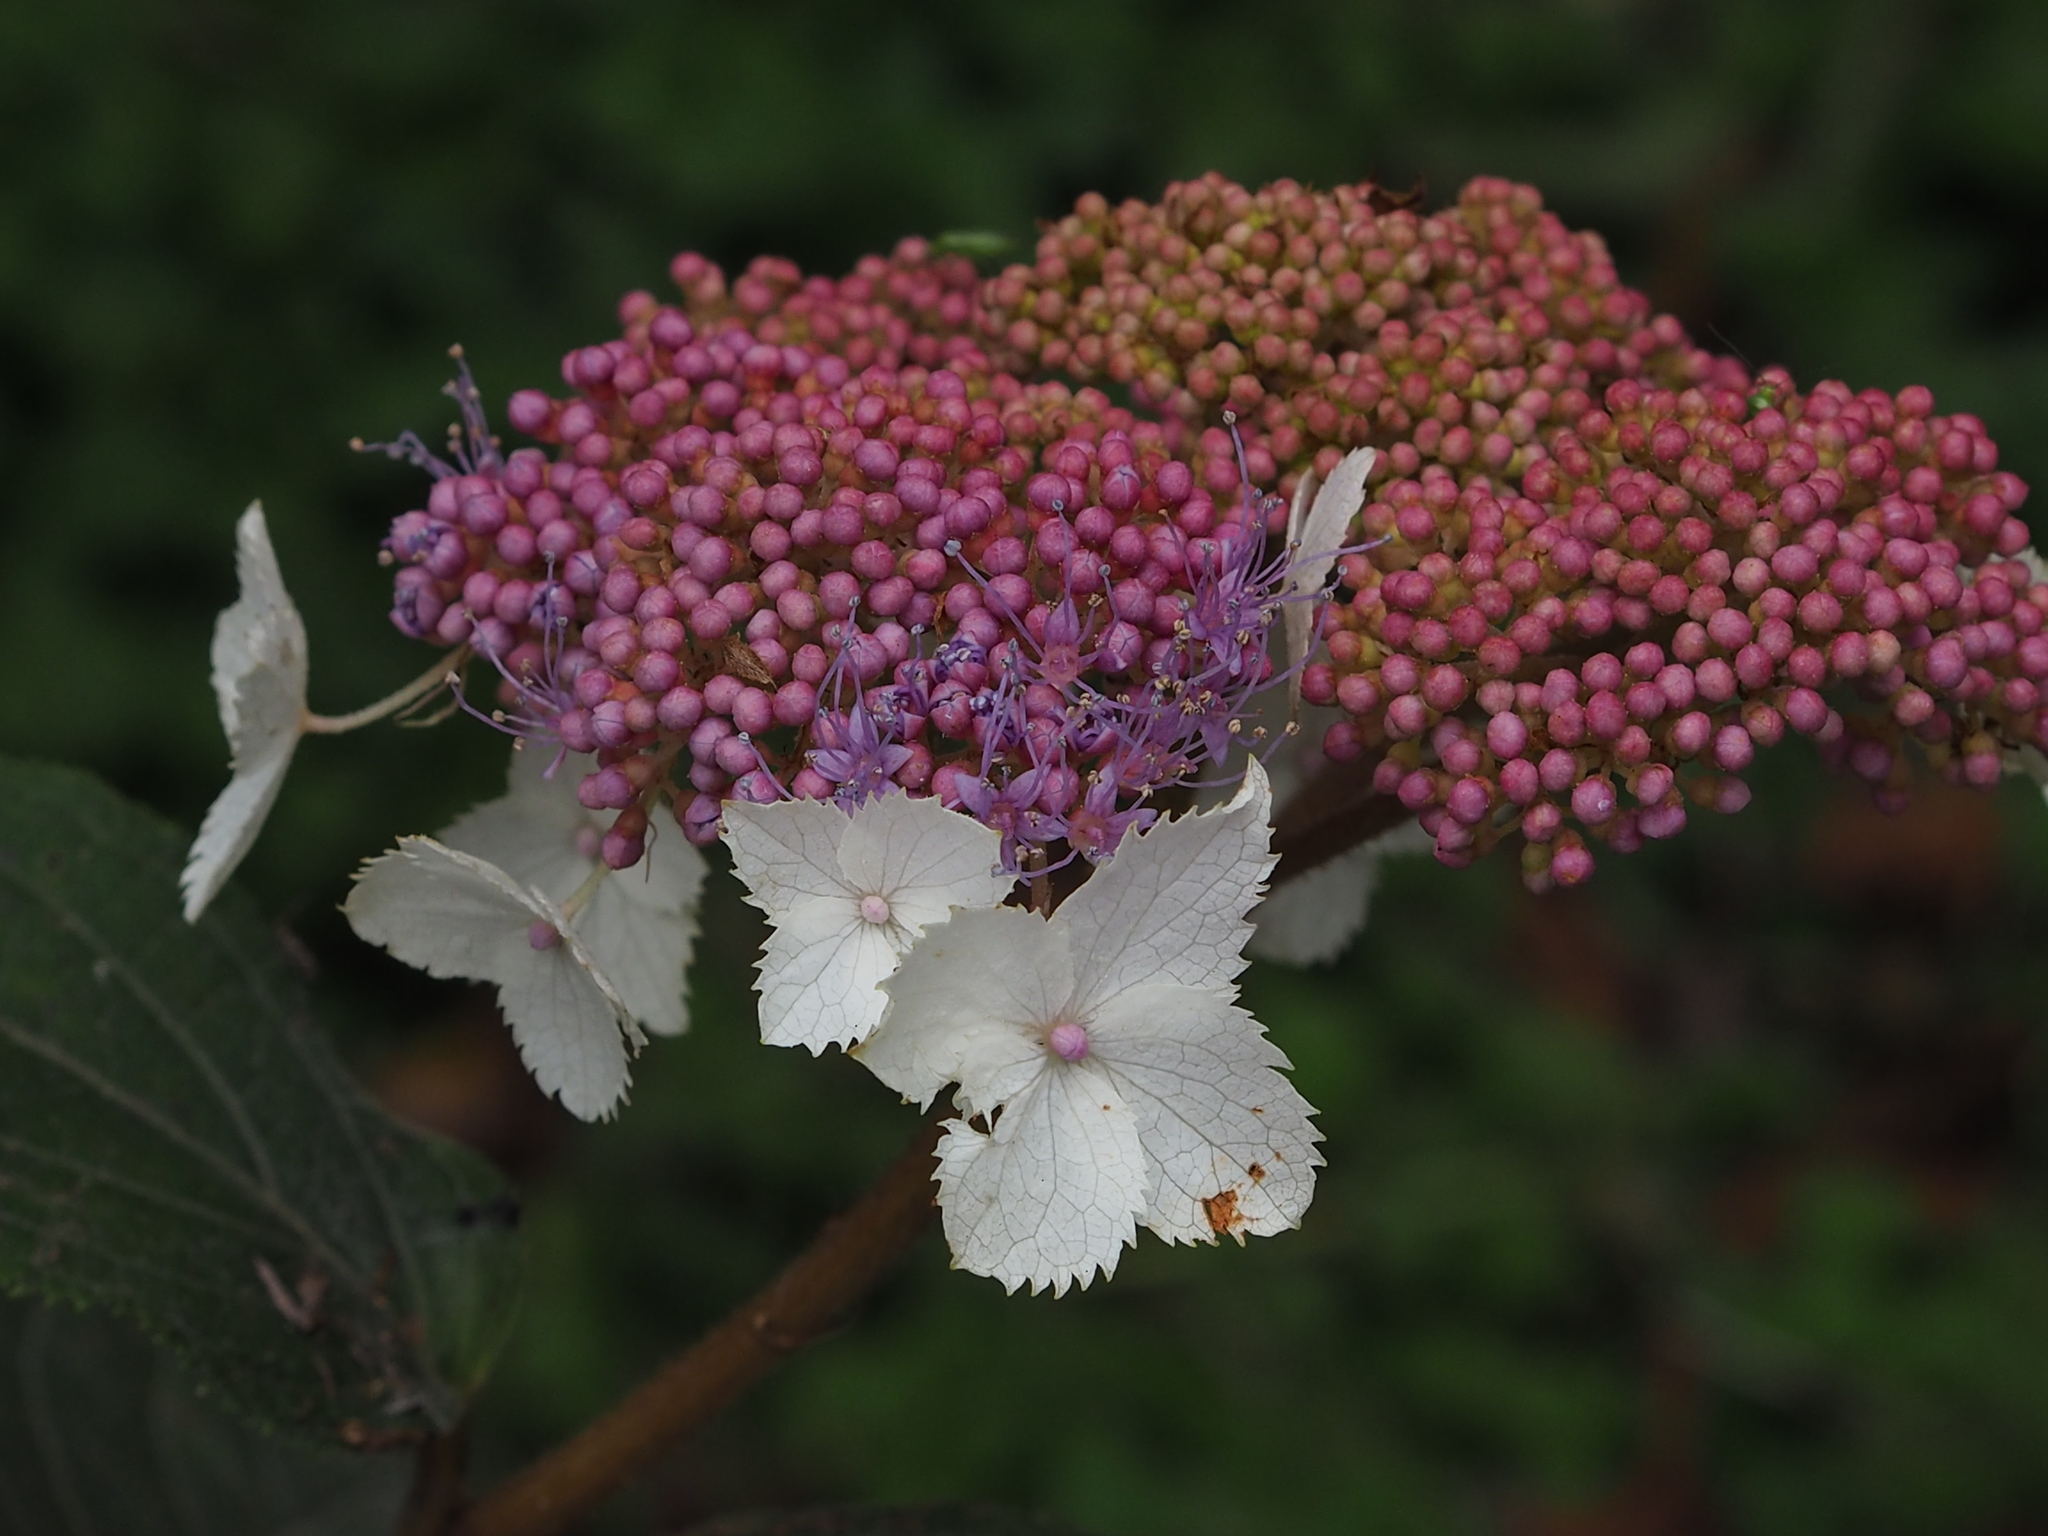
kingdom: Plantae
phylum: Tracheophyta
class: Magnoliopsida
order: Cornales
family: Hydrangeaceae
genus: Hydrangea
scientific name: Hydrangea aspera
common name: Rough-leaf hydrangea
